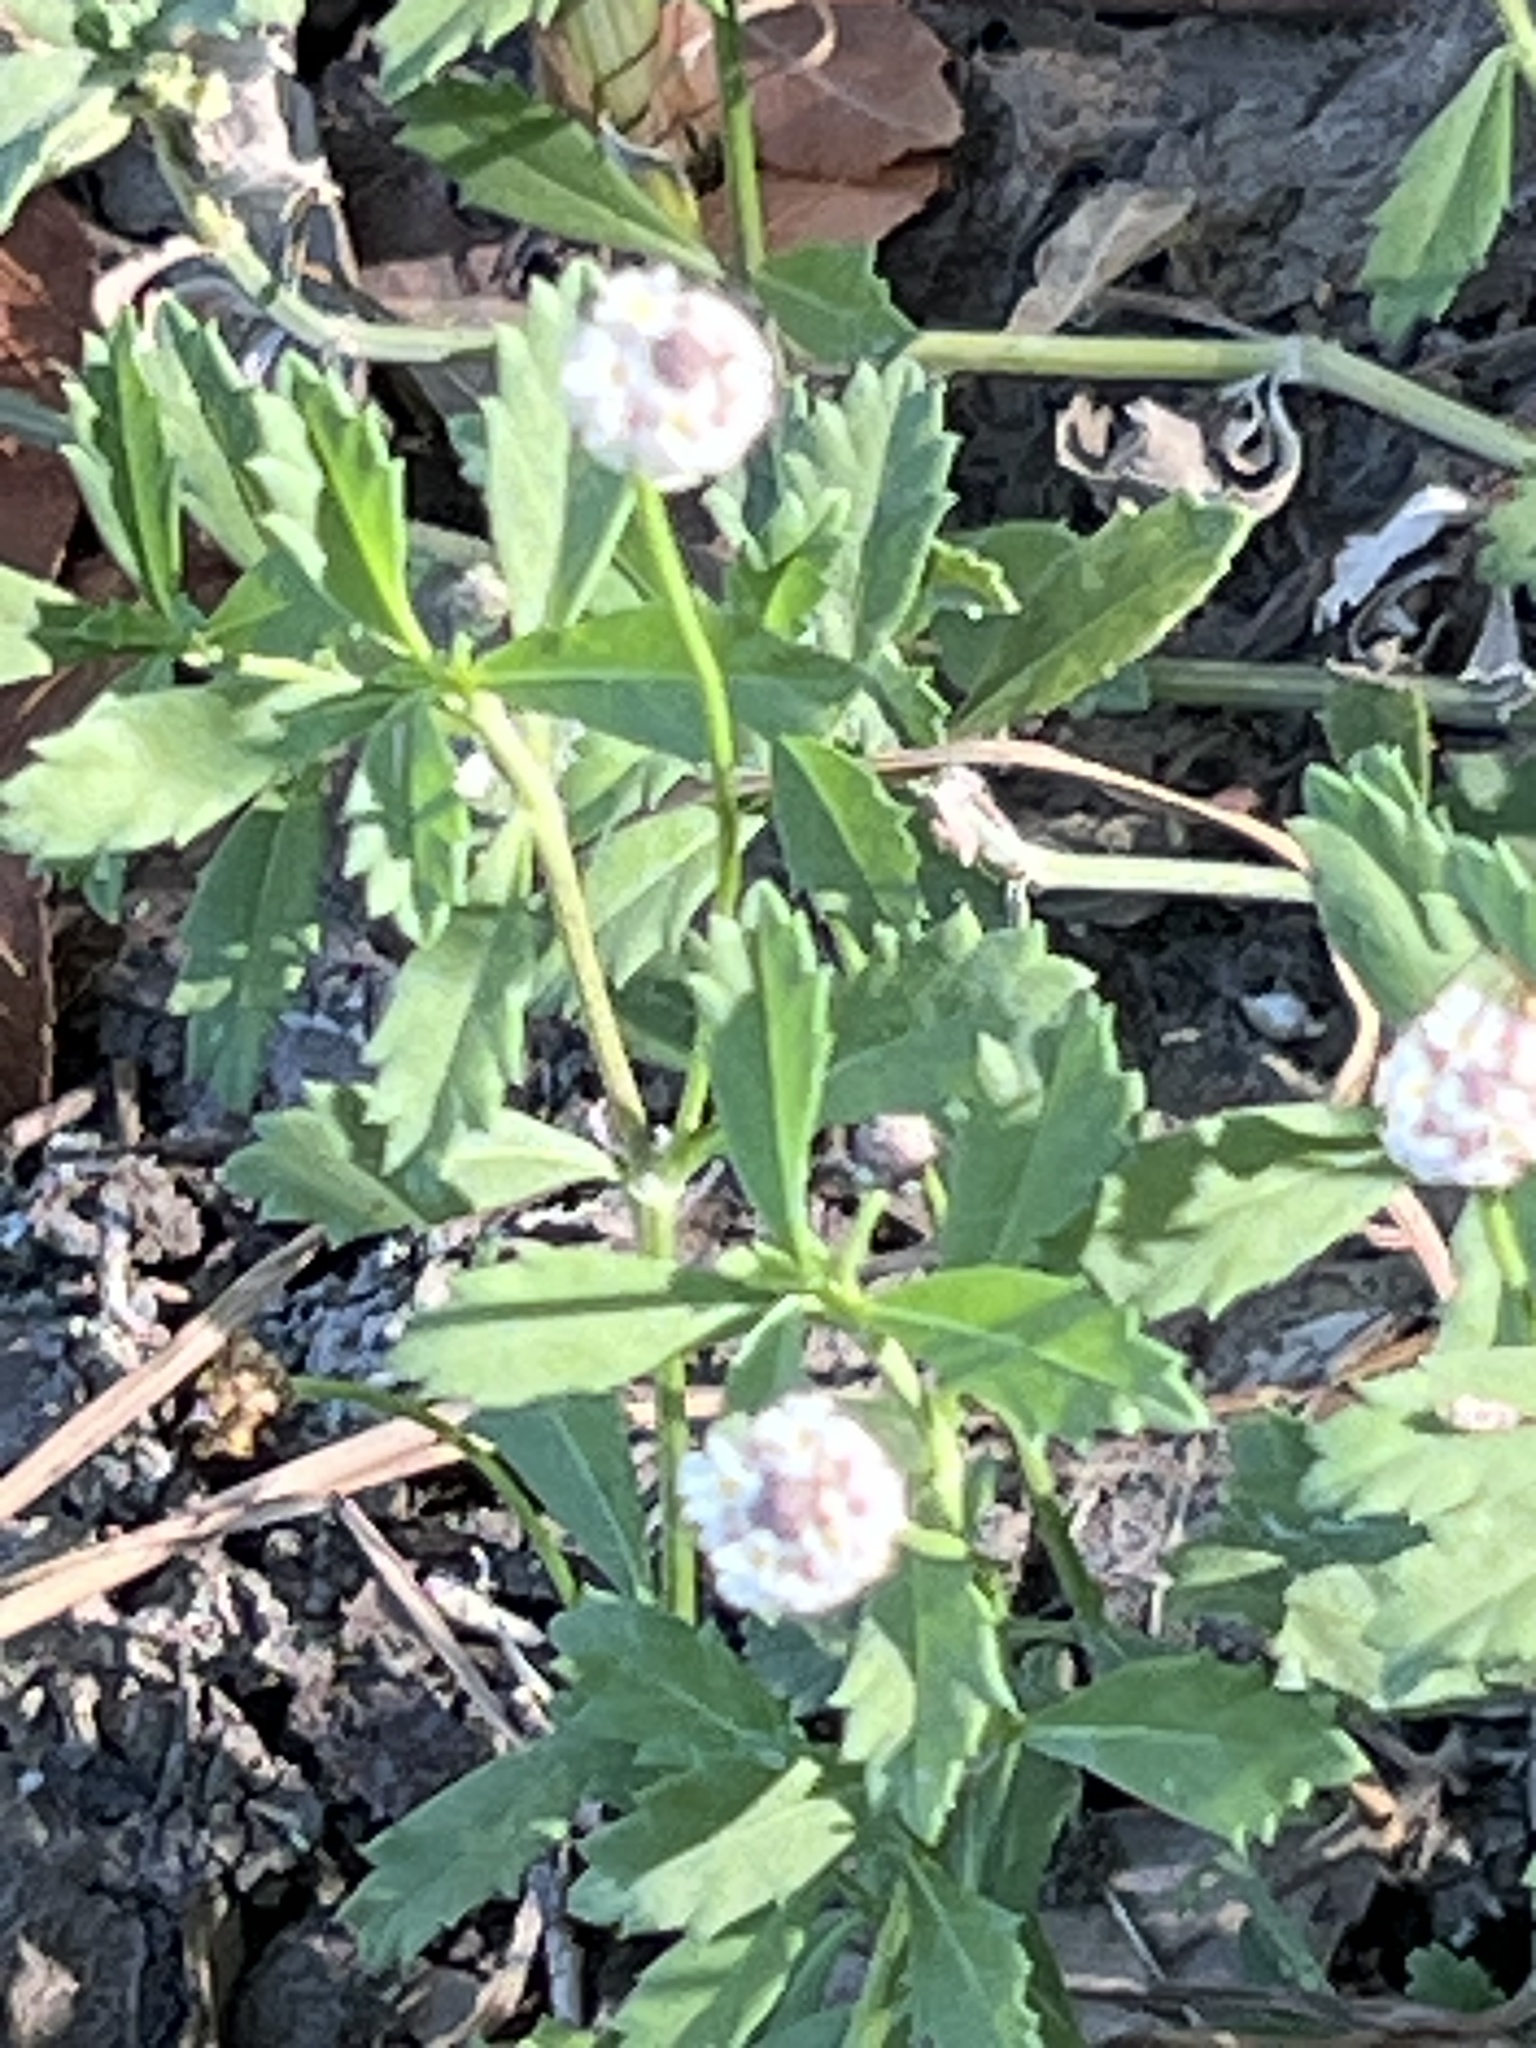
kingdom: Plantae
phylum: Tracheophyta
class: Magnoliopsida
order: Lamiales
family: Verbenaceae
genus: Phyla
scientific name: Phyla nodiflora
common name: Frogfruit
